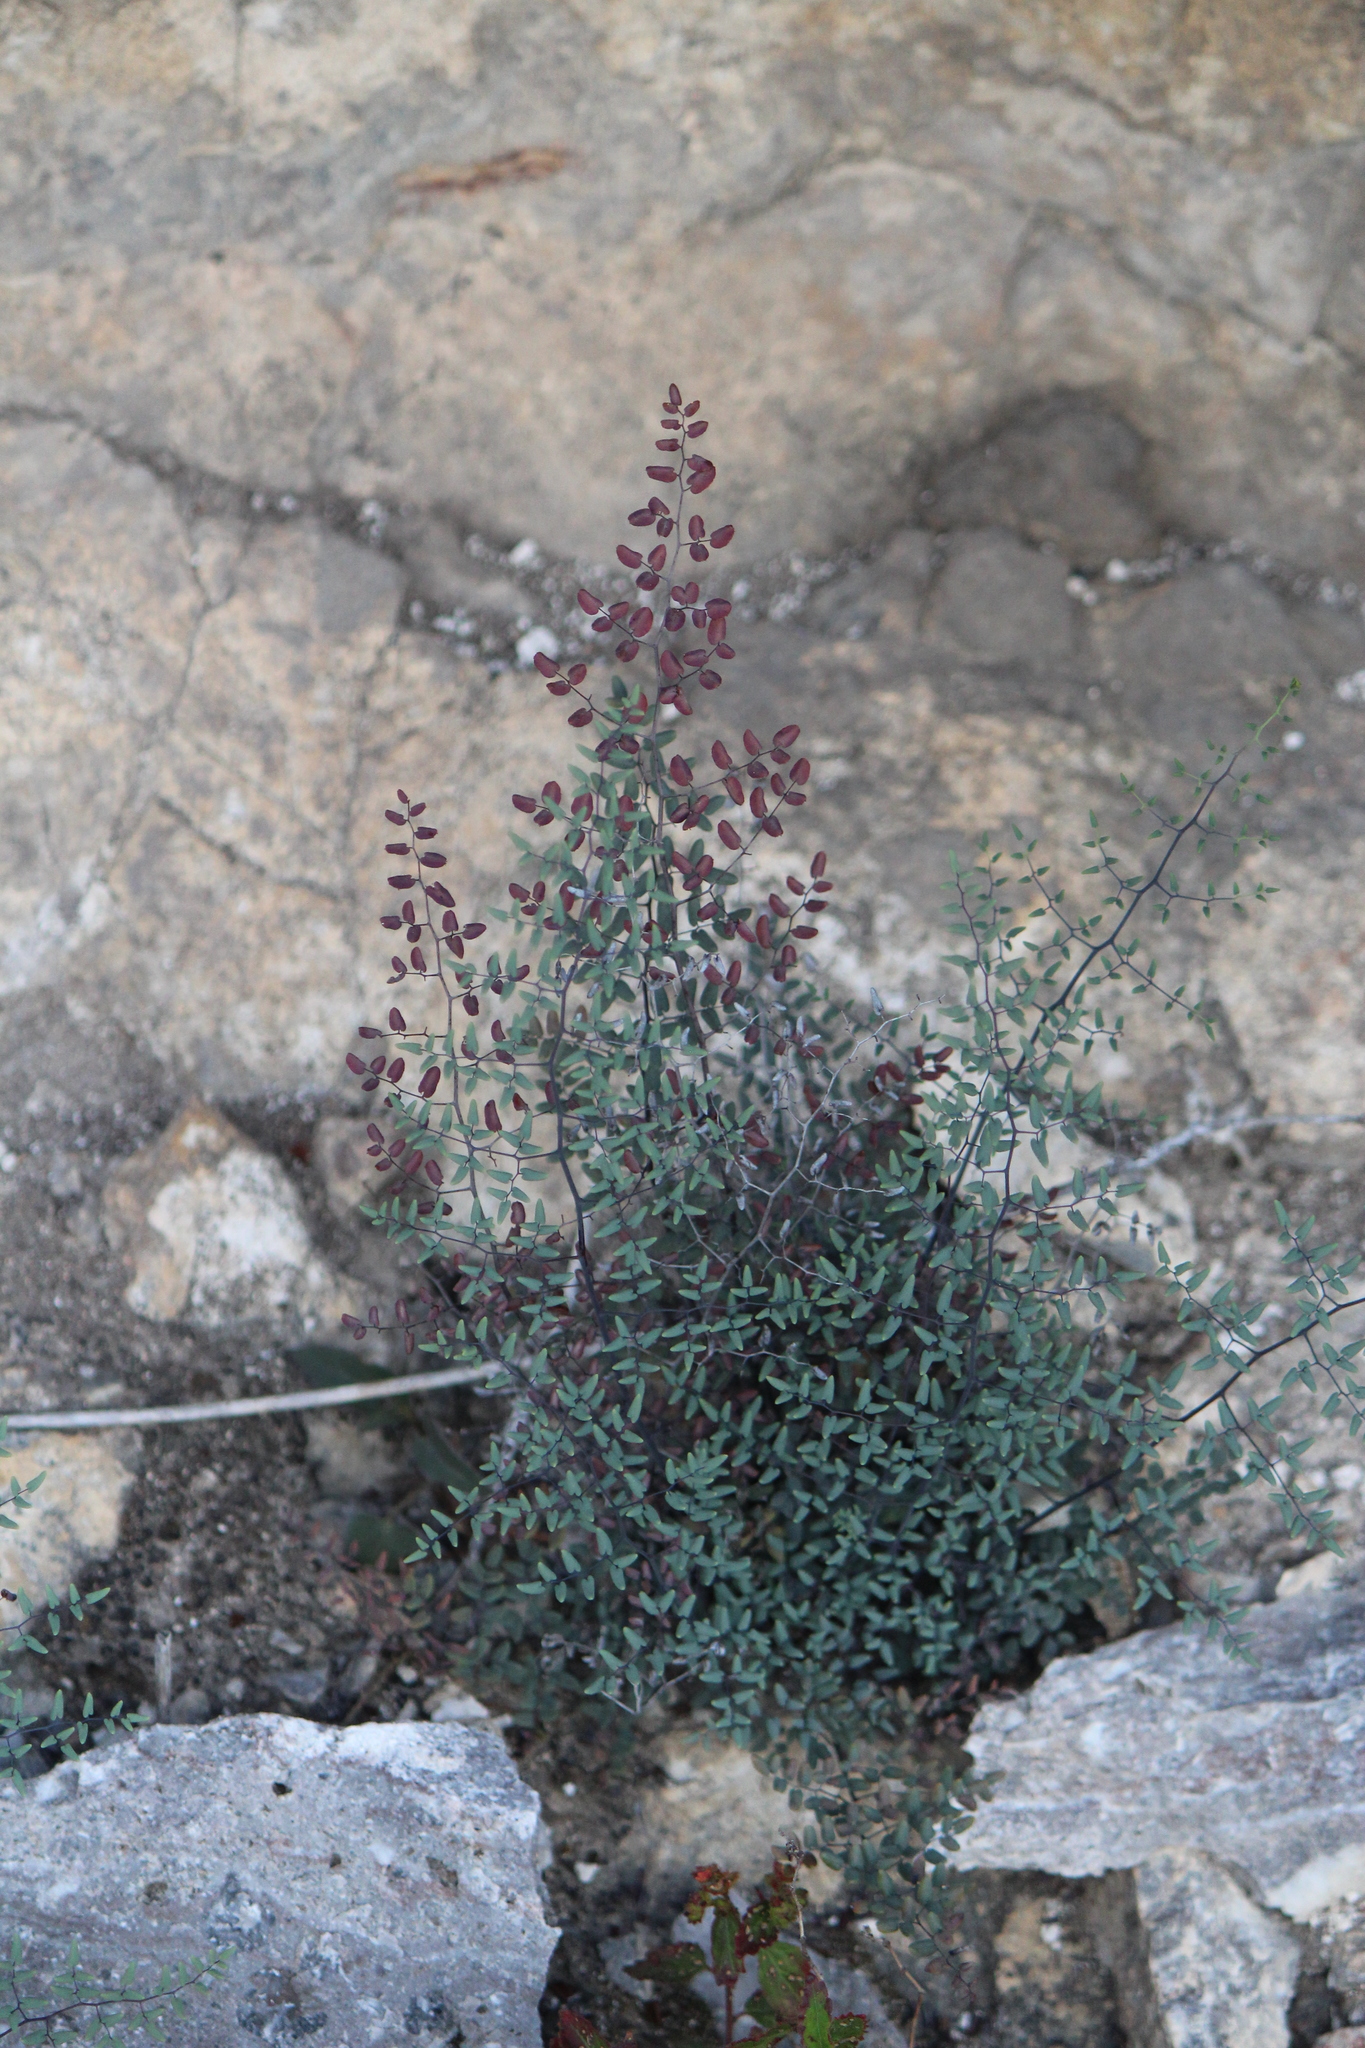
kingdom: Plantae
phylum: Tracheophyta
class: Magnoliopsida
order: Malpighiales
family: Malpighiaceae
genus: Galphimia
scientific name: Galphimia glauca
